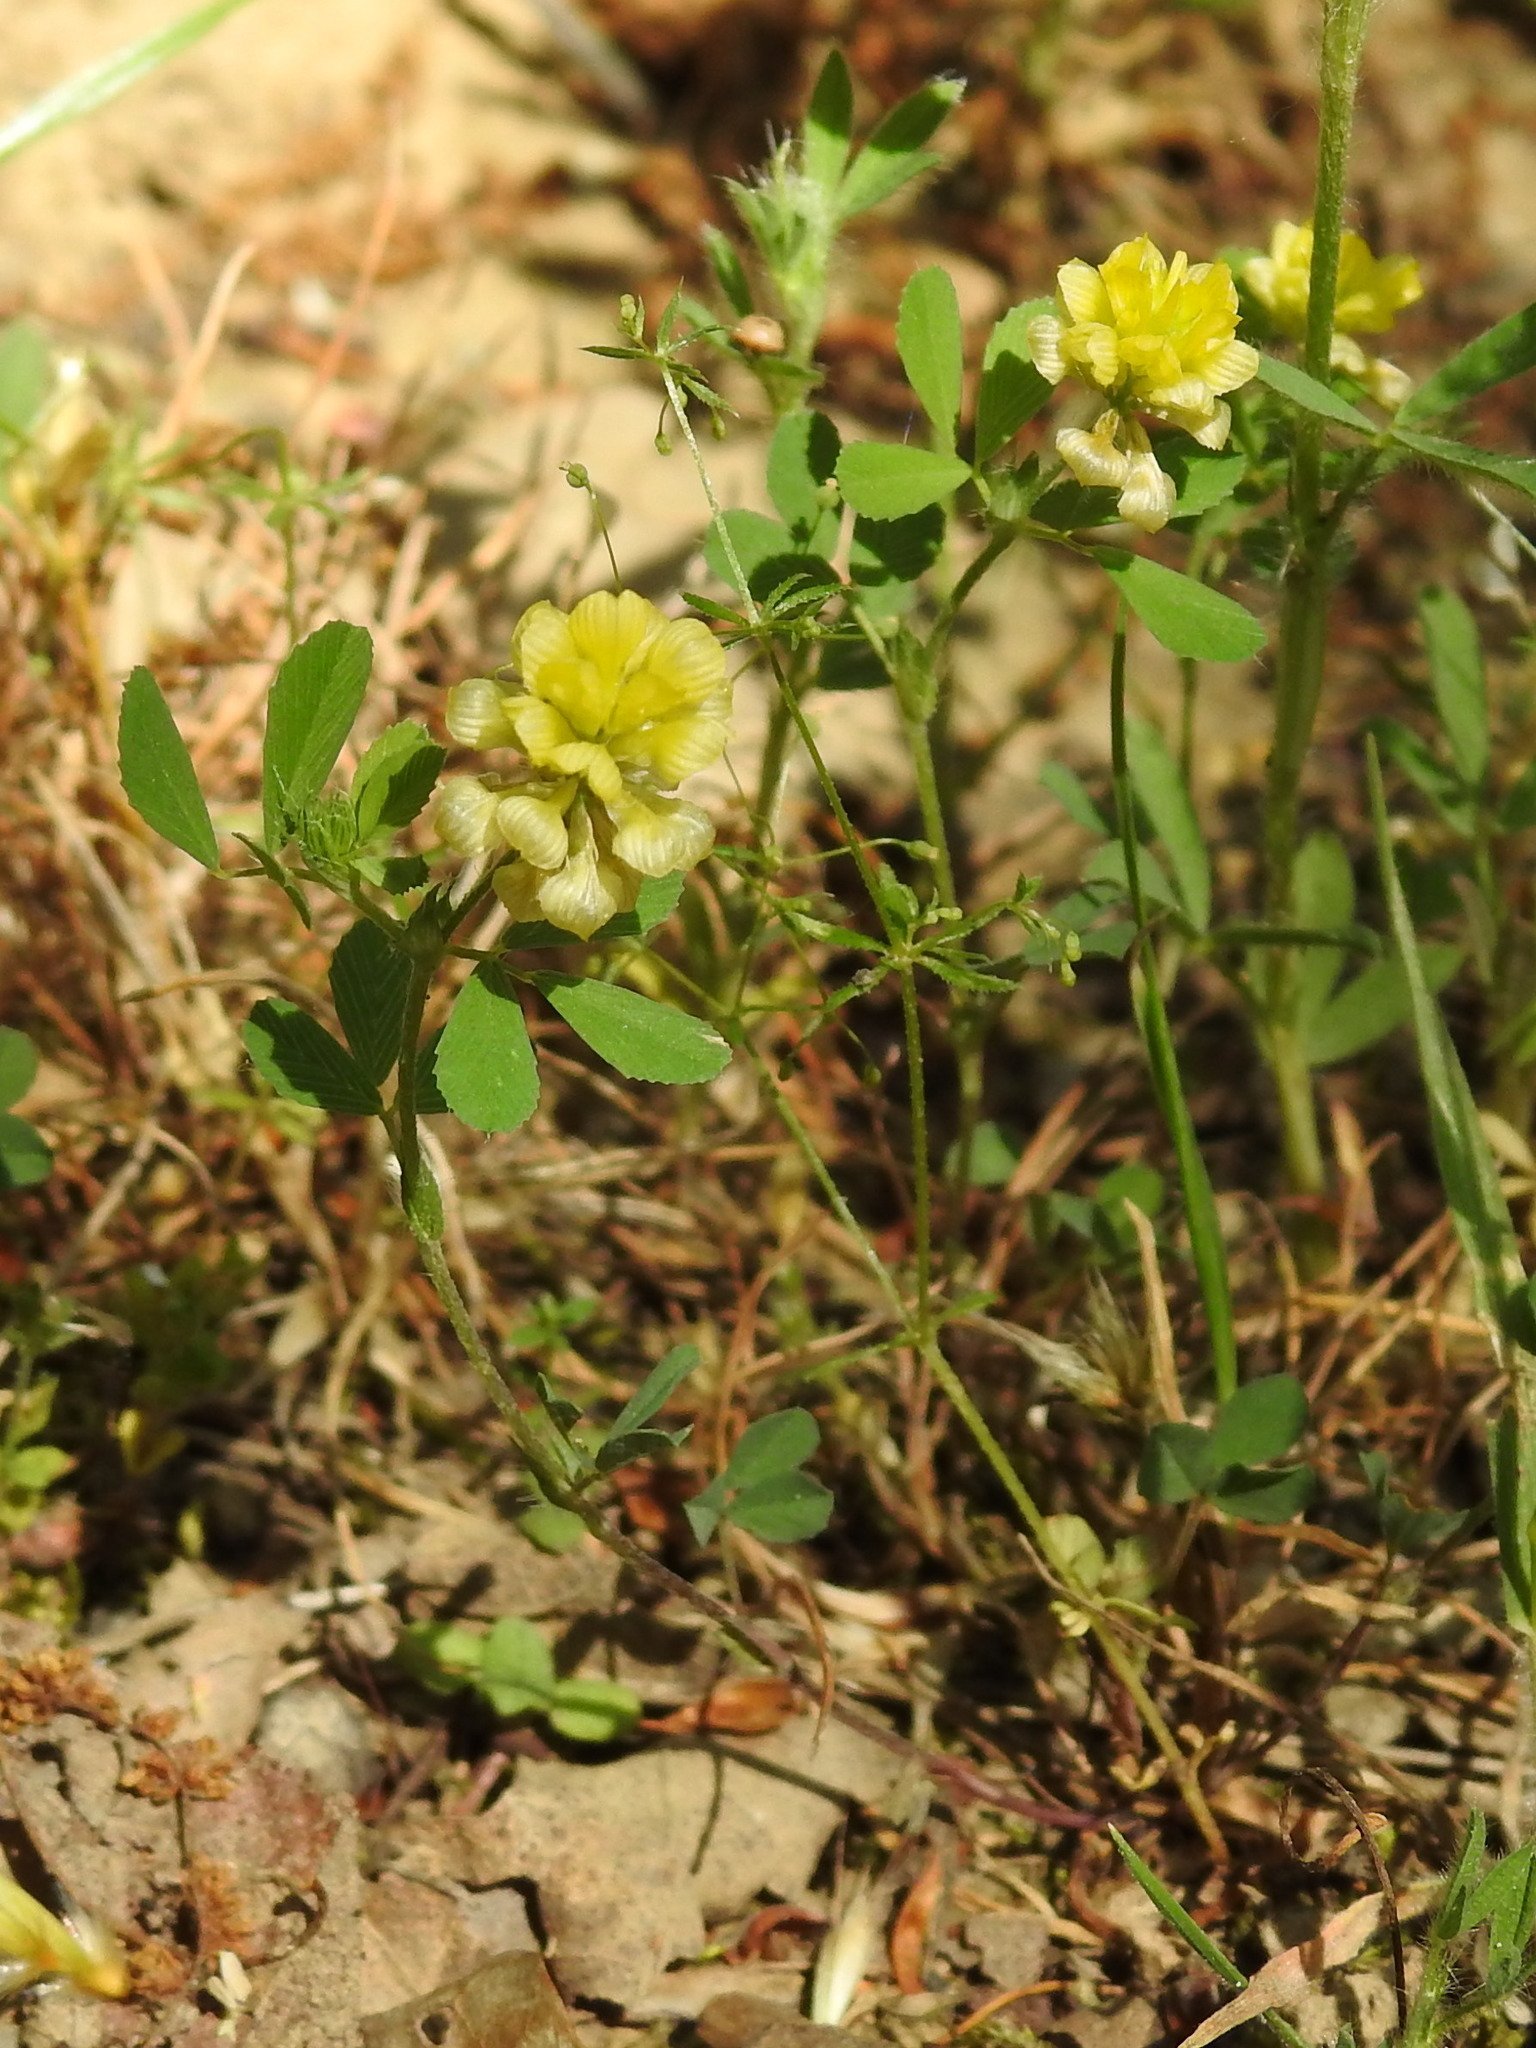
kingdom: Plantae
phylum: Tracheophyta
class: Magnoliopsida
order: Fabales
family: Fabaceae
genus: Trifolium
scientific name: Trifolium campestre
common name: Field clover
